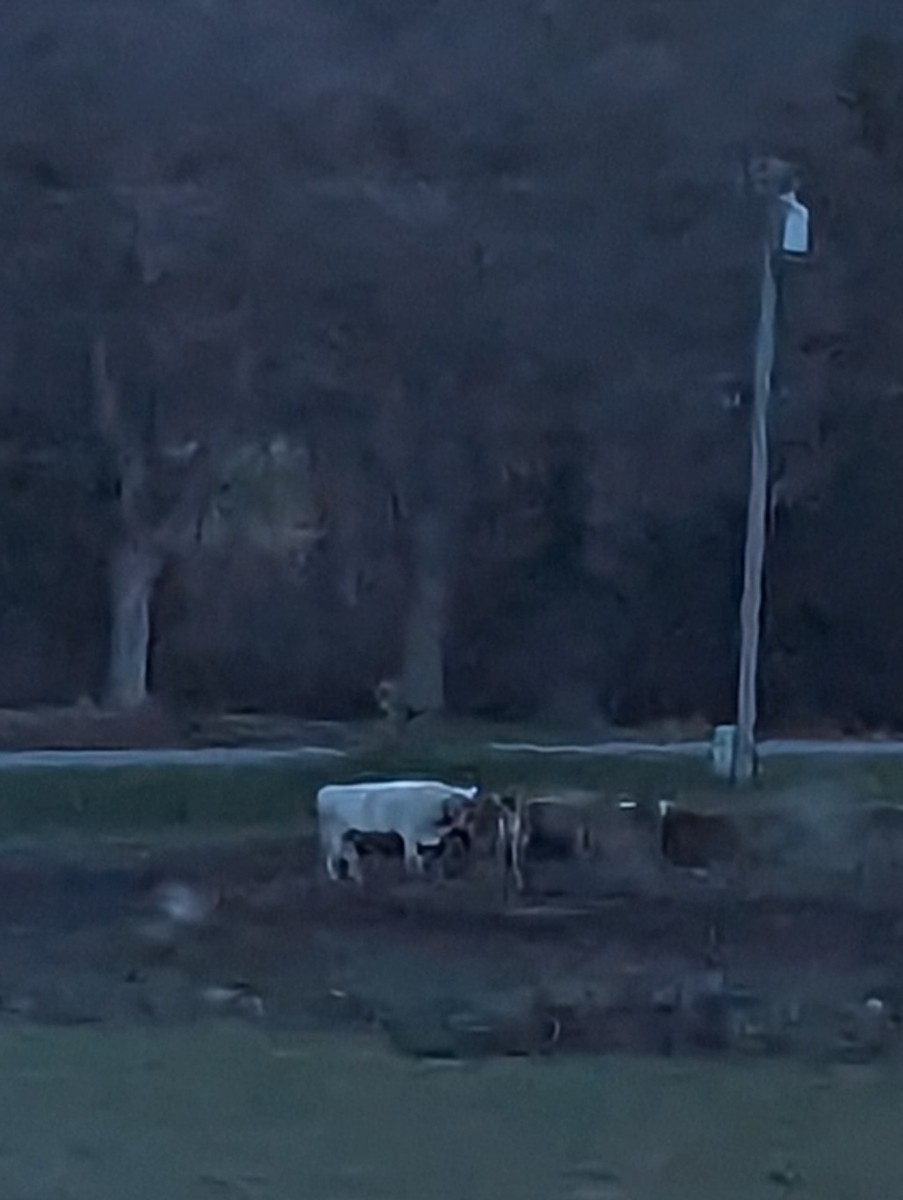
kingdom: Animalia
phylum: Chordata
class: Mammalia
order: Artiodactyla
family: Bovidae
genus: Bos
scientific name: Bos taurus
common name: Domesticated cattle
